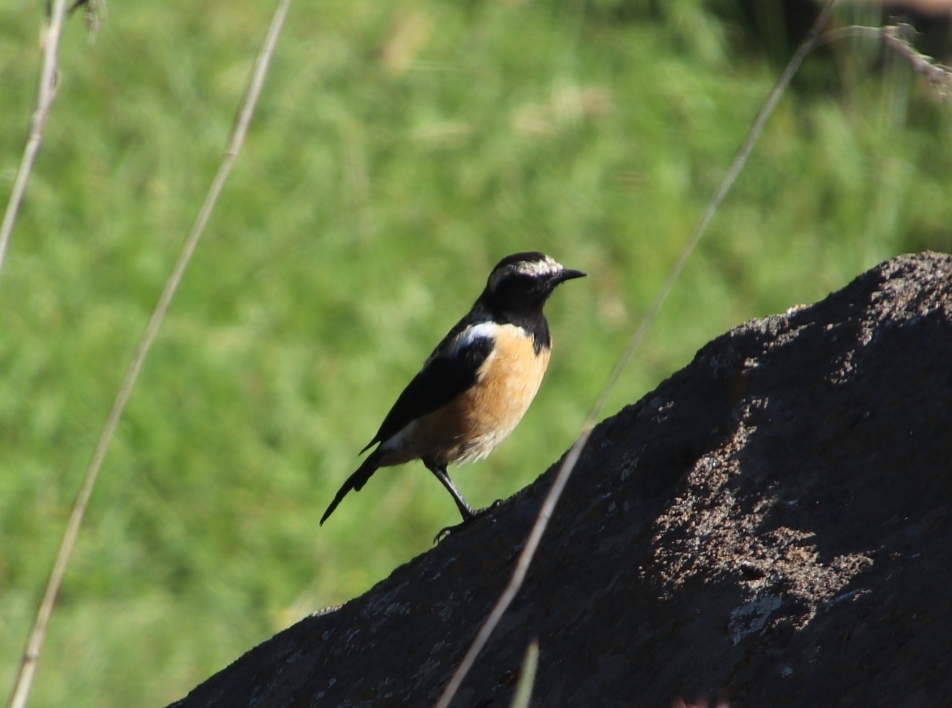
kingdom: Animalia
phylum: Chordata
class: Aves
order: Passeriformes
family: Muscicapidae
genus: Campicoloides
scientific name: Campicoloides bifasciatus
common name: Buff-streaked chat
